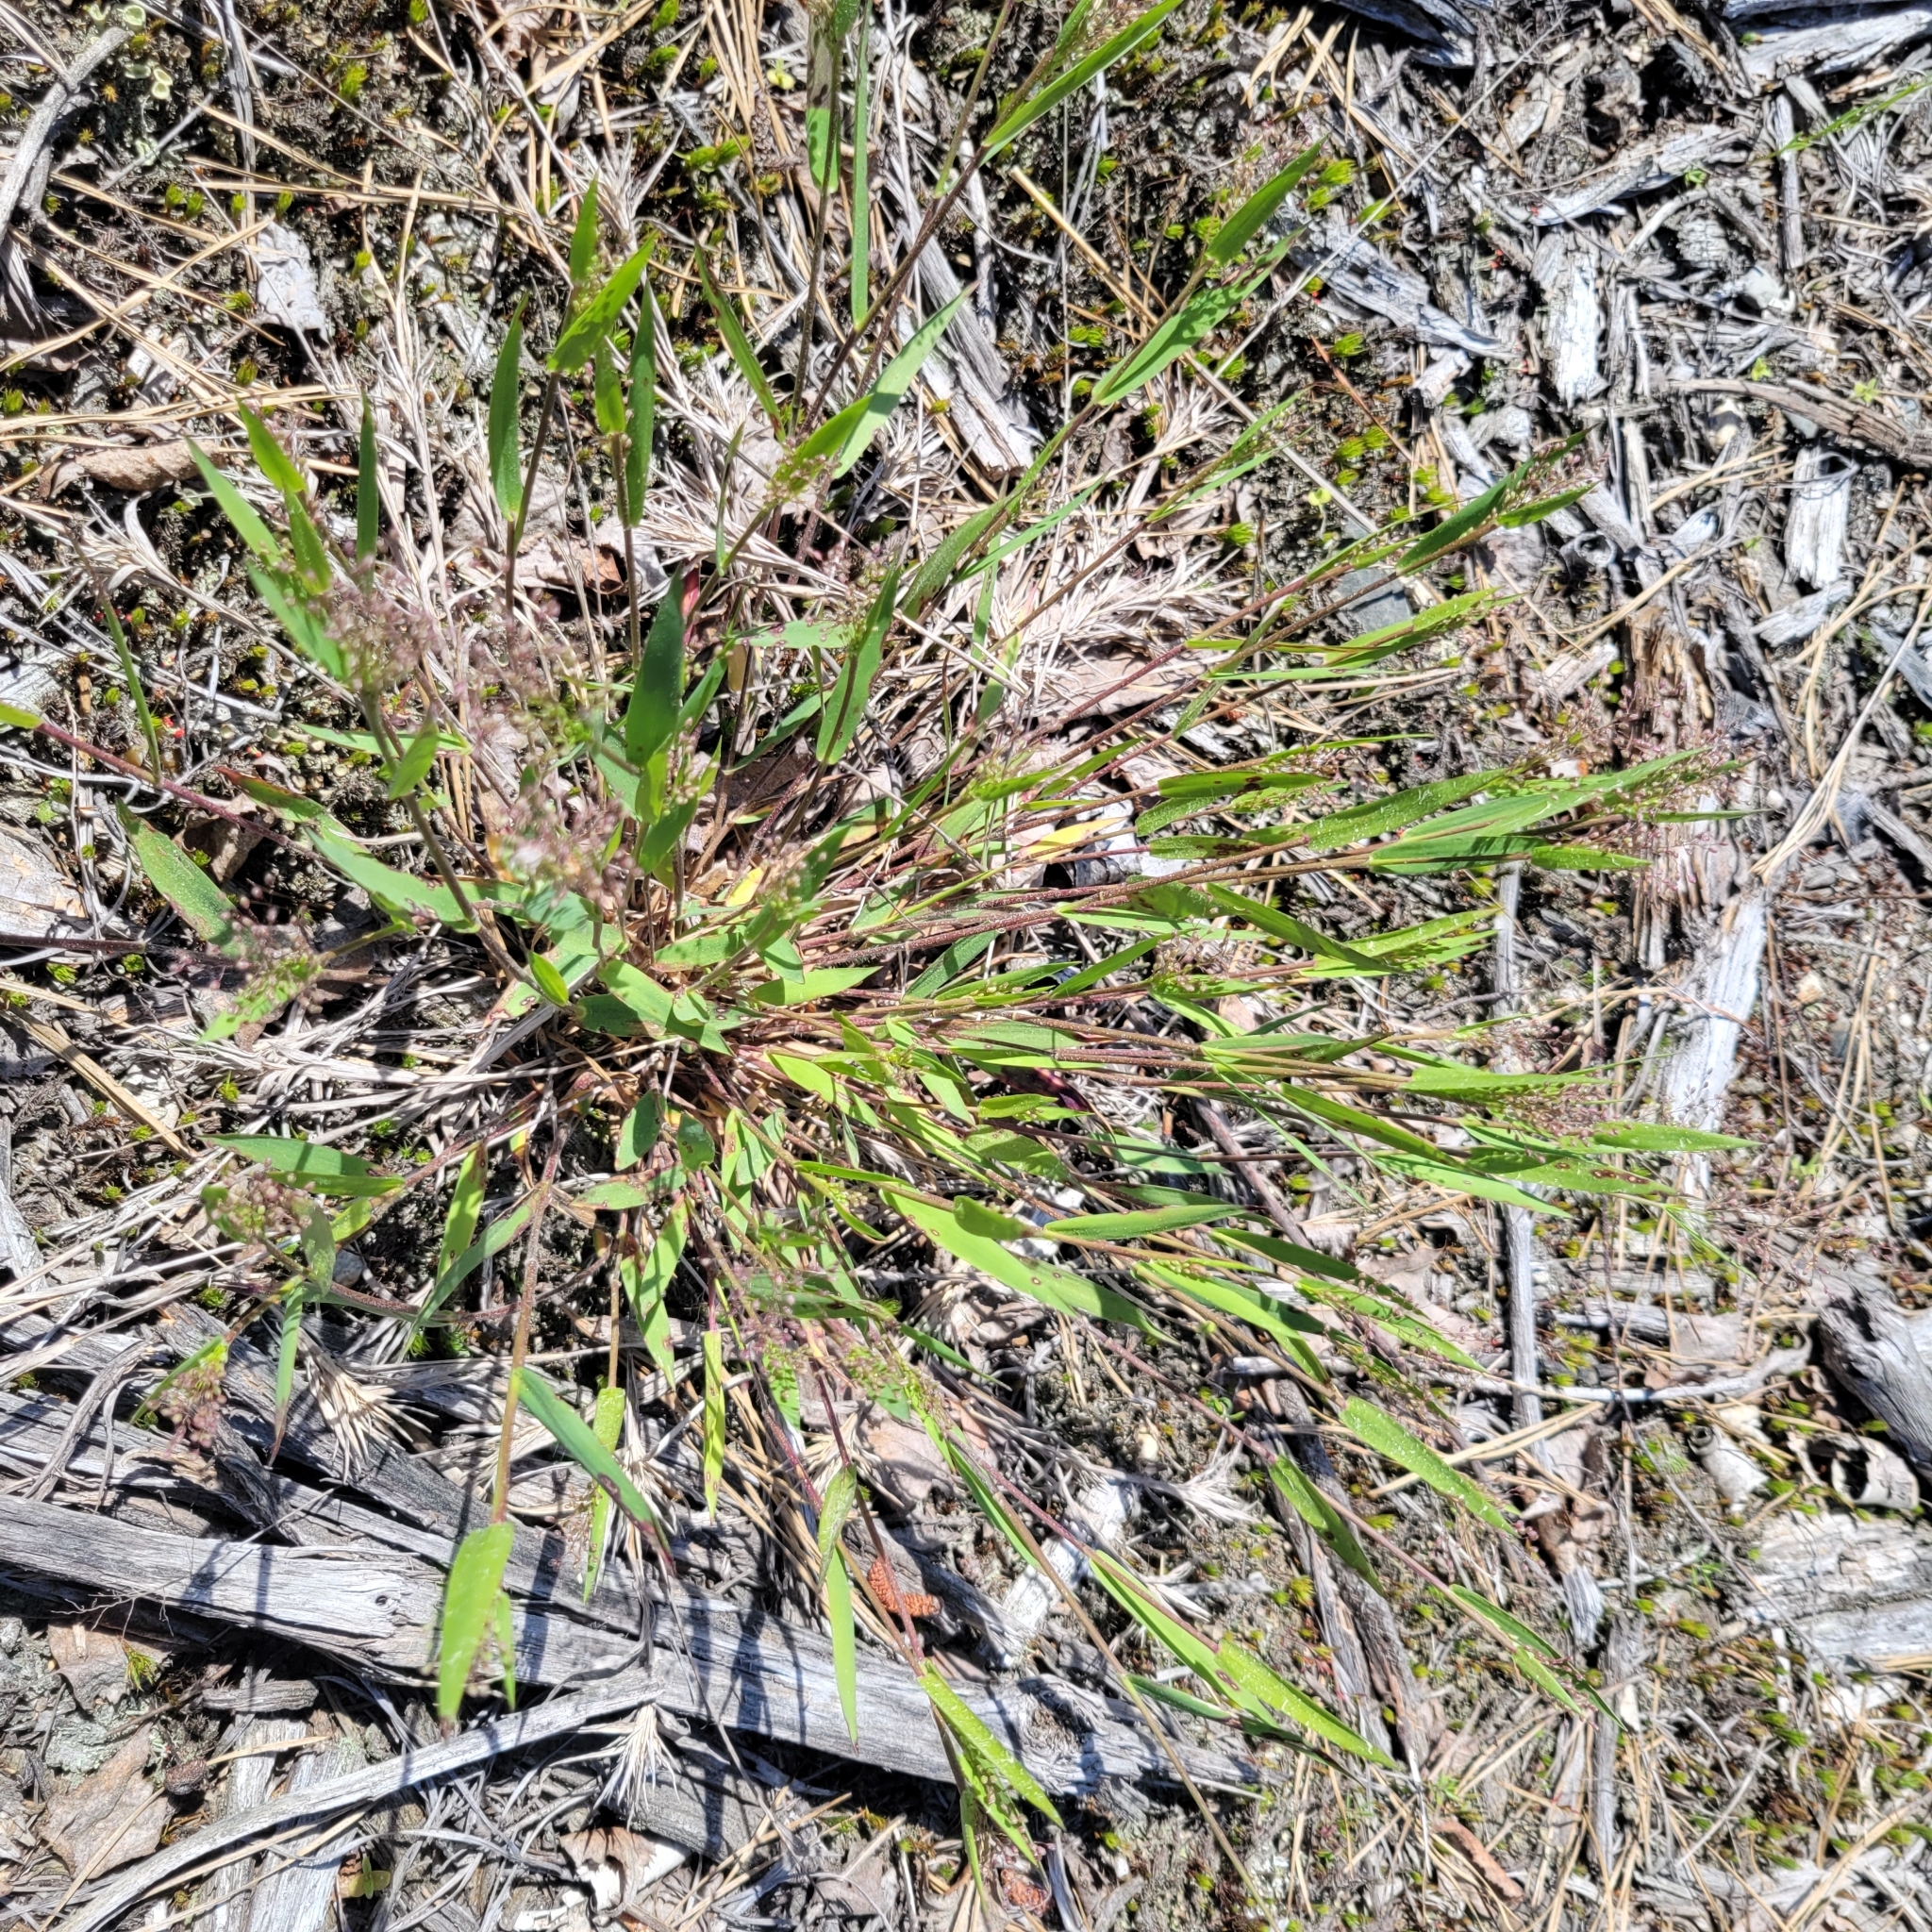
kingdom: Plantae
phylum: Tracheophyta
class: Liliopsida
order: Poales
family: Poaceae
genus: Dichanthelium
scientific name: Dichanthelium sphaerocarpon
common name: Round-fruited panicgrass
